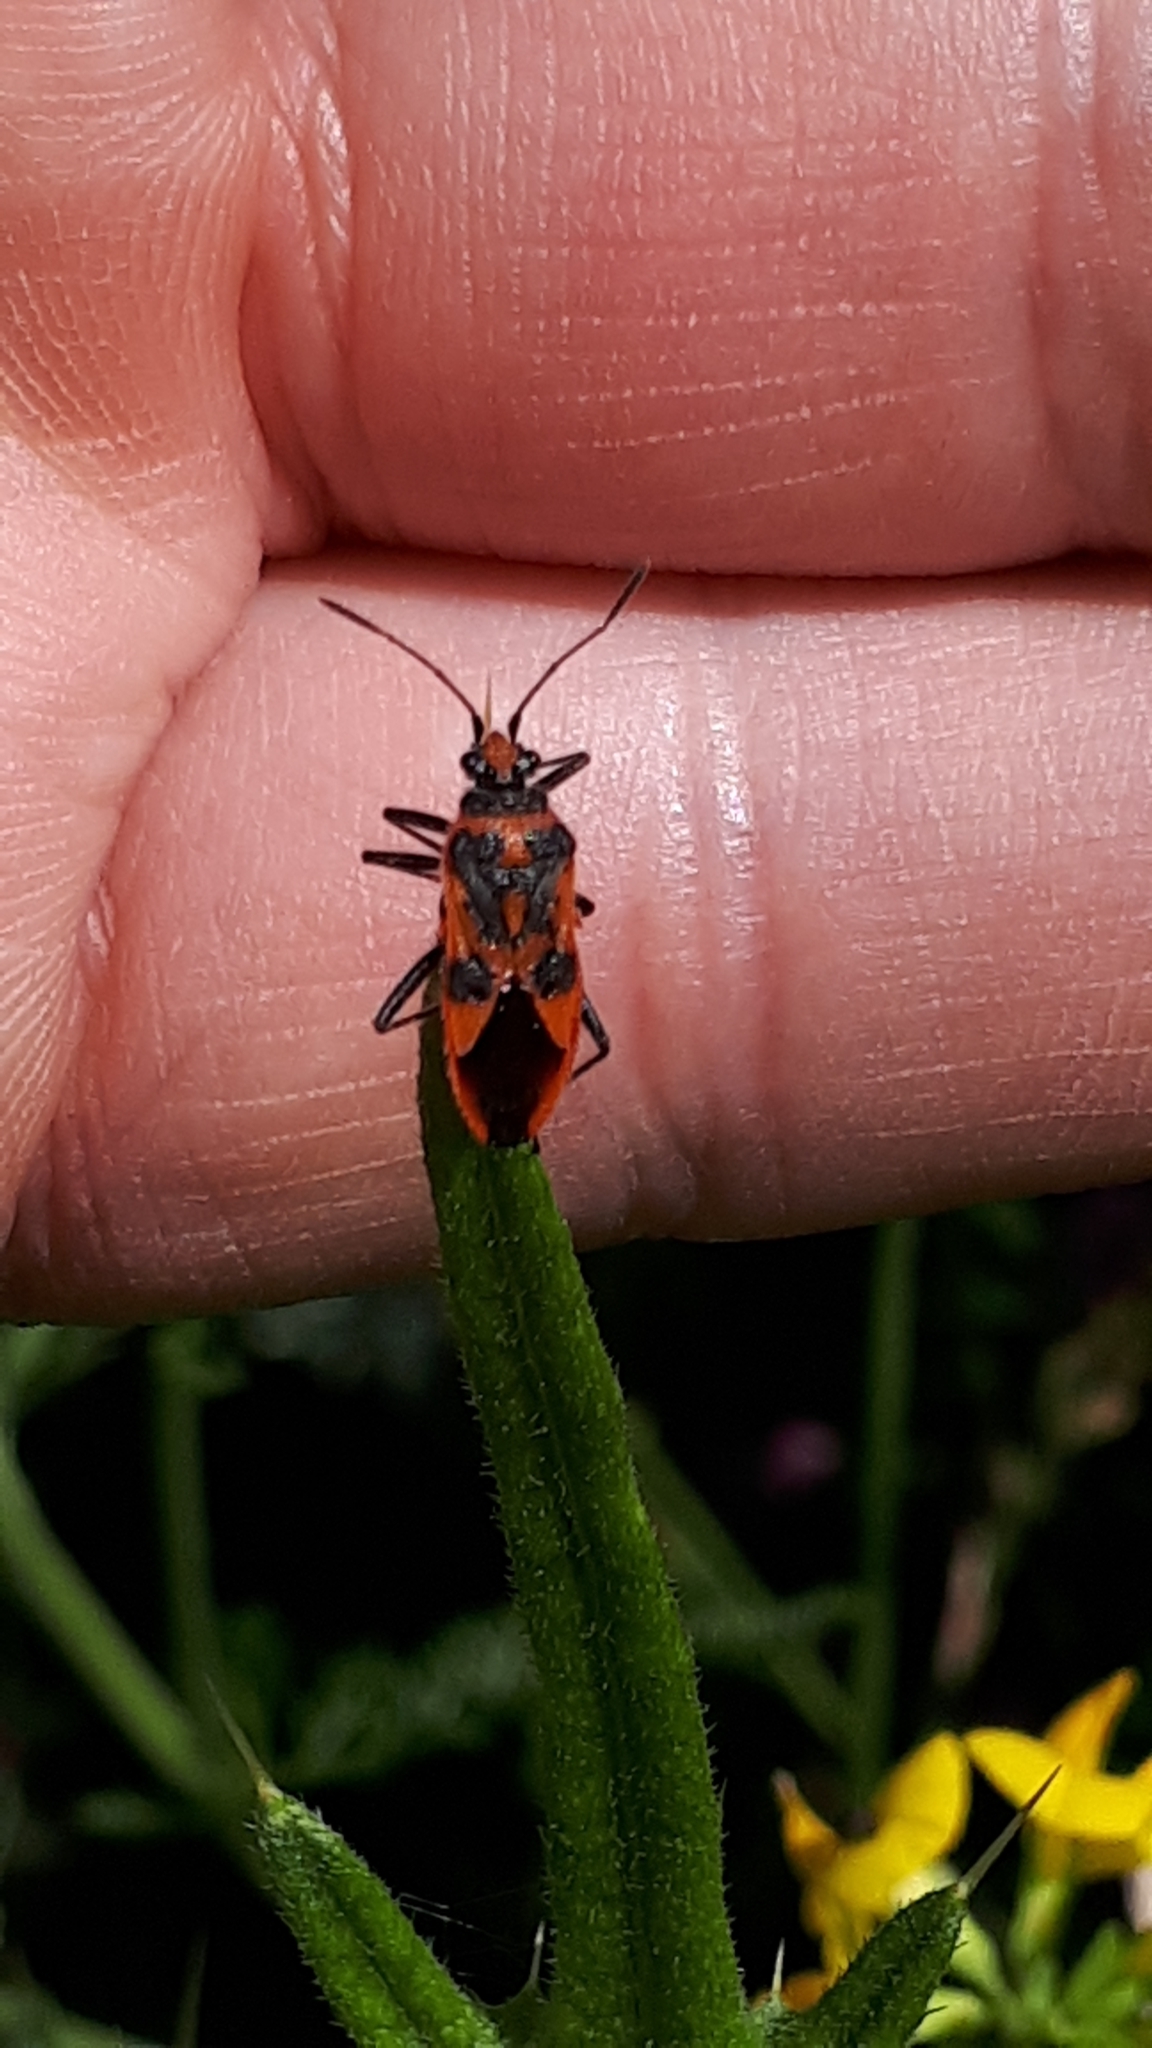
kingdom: Animalia
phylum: Arthropoda
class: Insecta
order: Hemiptera
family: Rhopalidae
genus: Corizus
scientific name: Corizus hyoscyami
